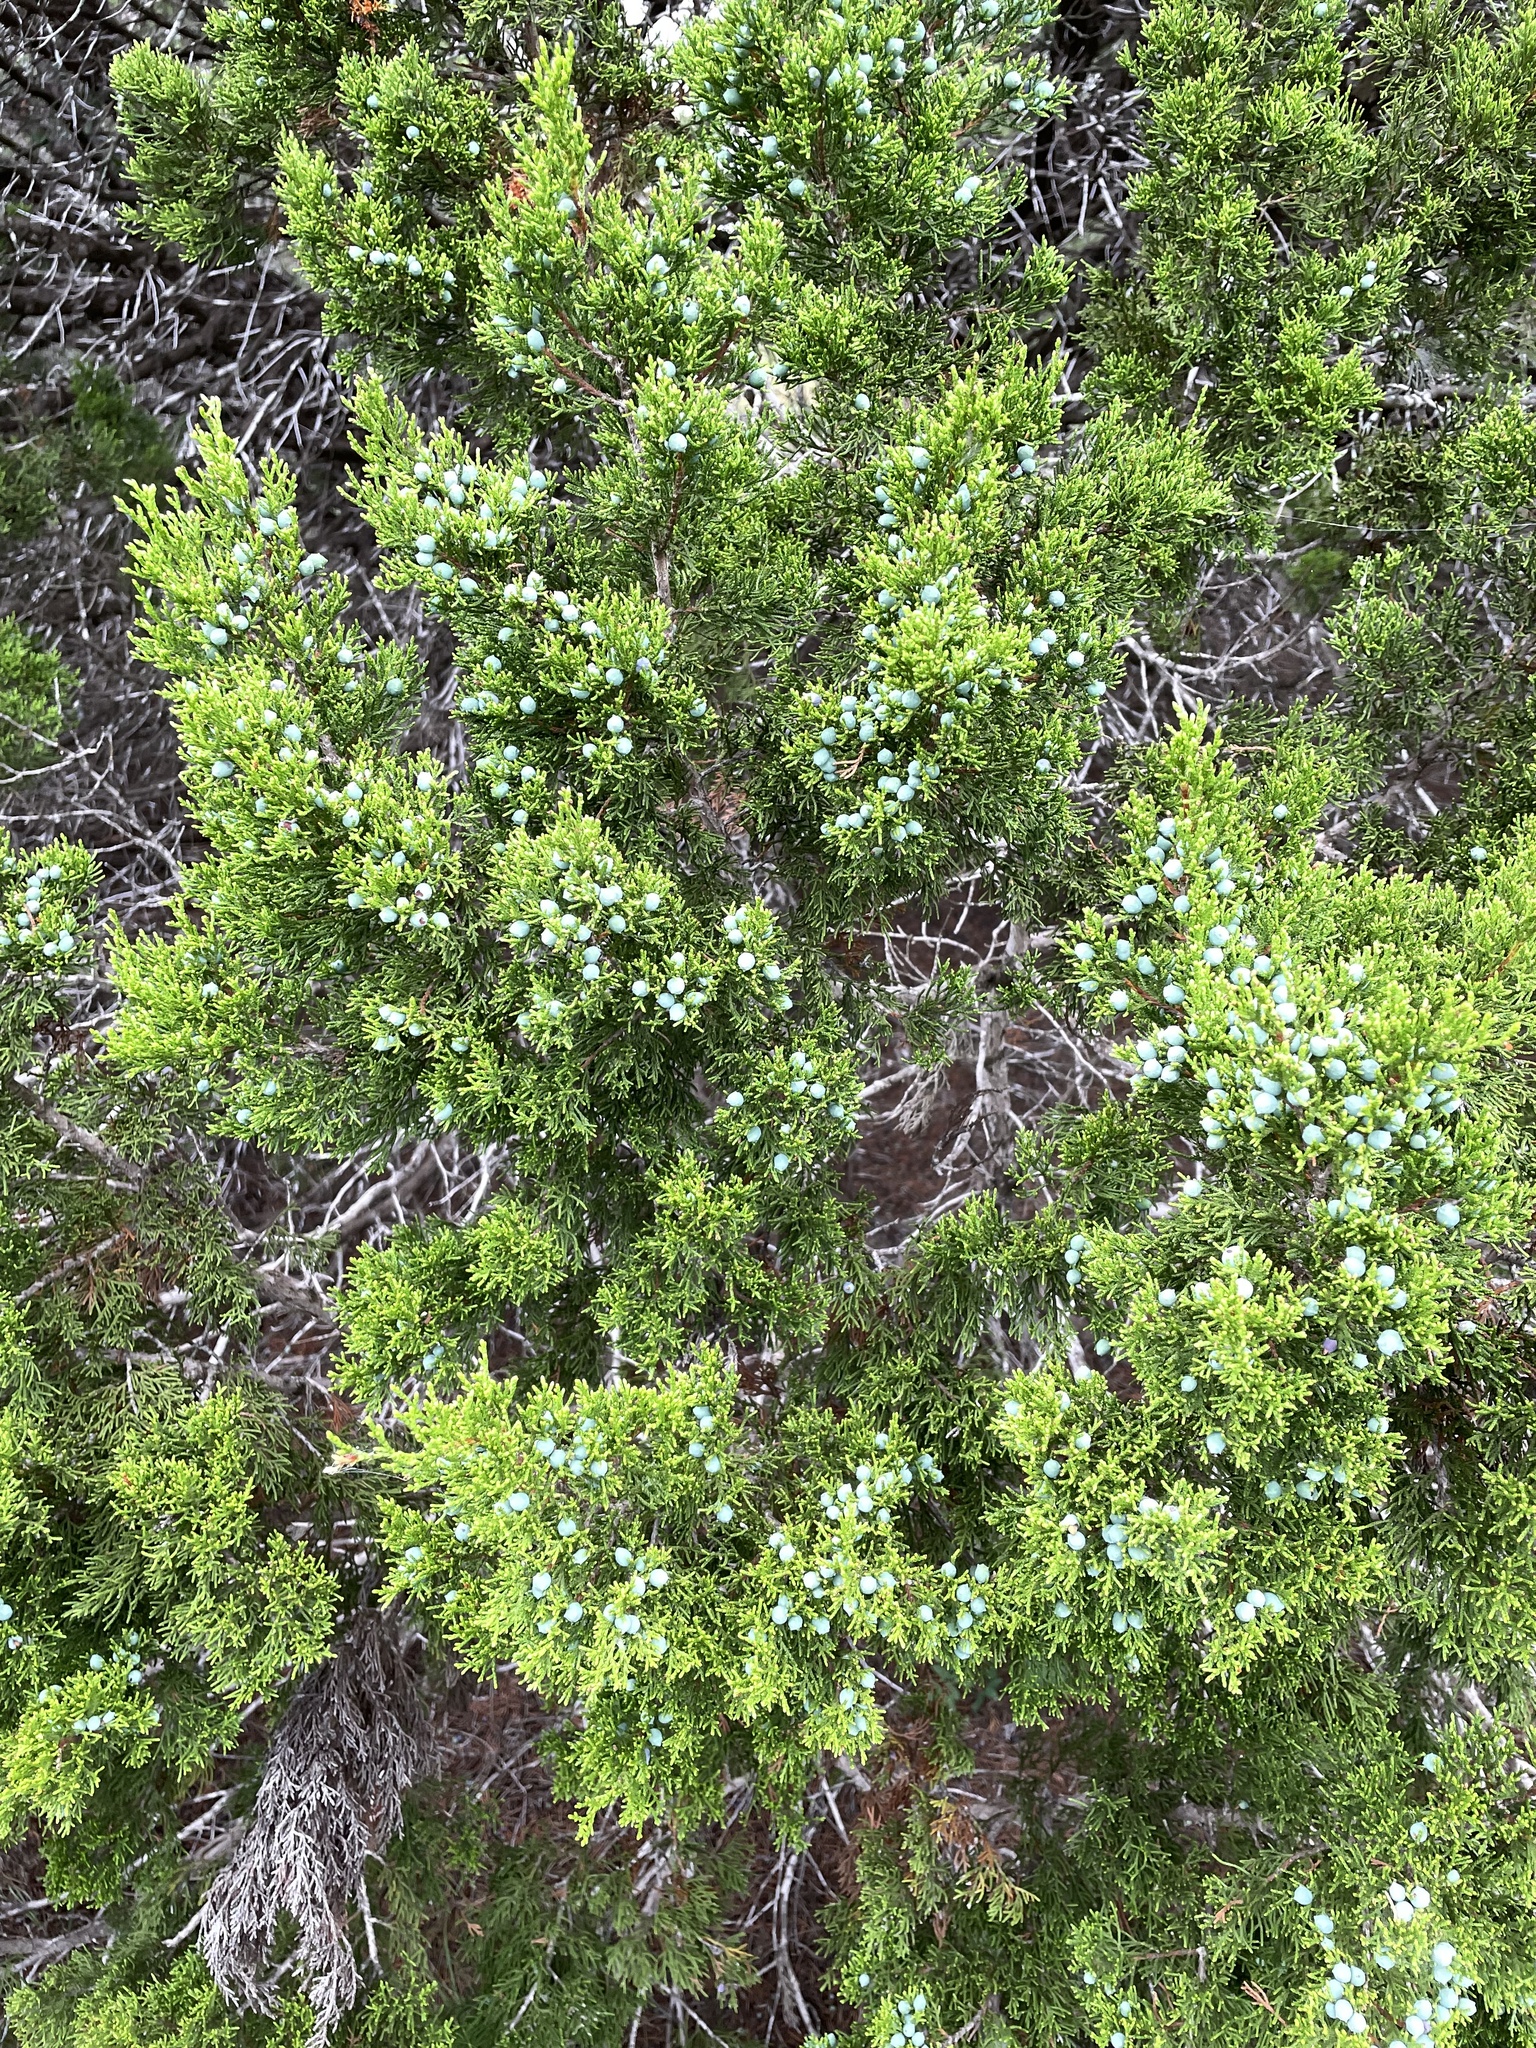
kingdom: Plantae
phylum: Tracheophyta
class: Pinopsida
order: Pinales
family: Cupressaceae
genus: Juniperus
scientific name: Juniperus ashei
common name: Mexican juniper
